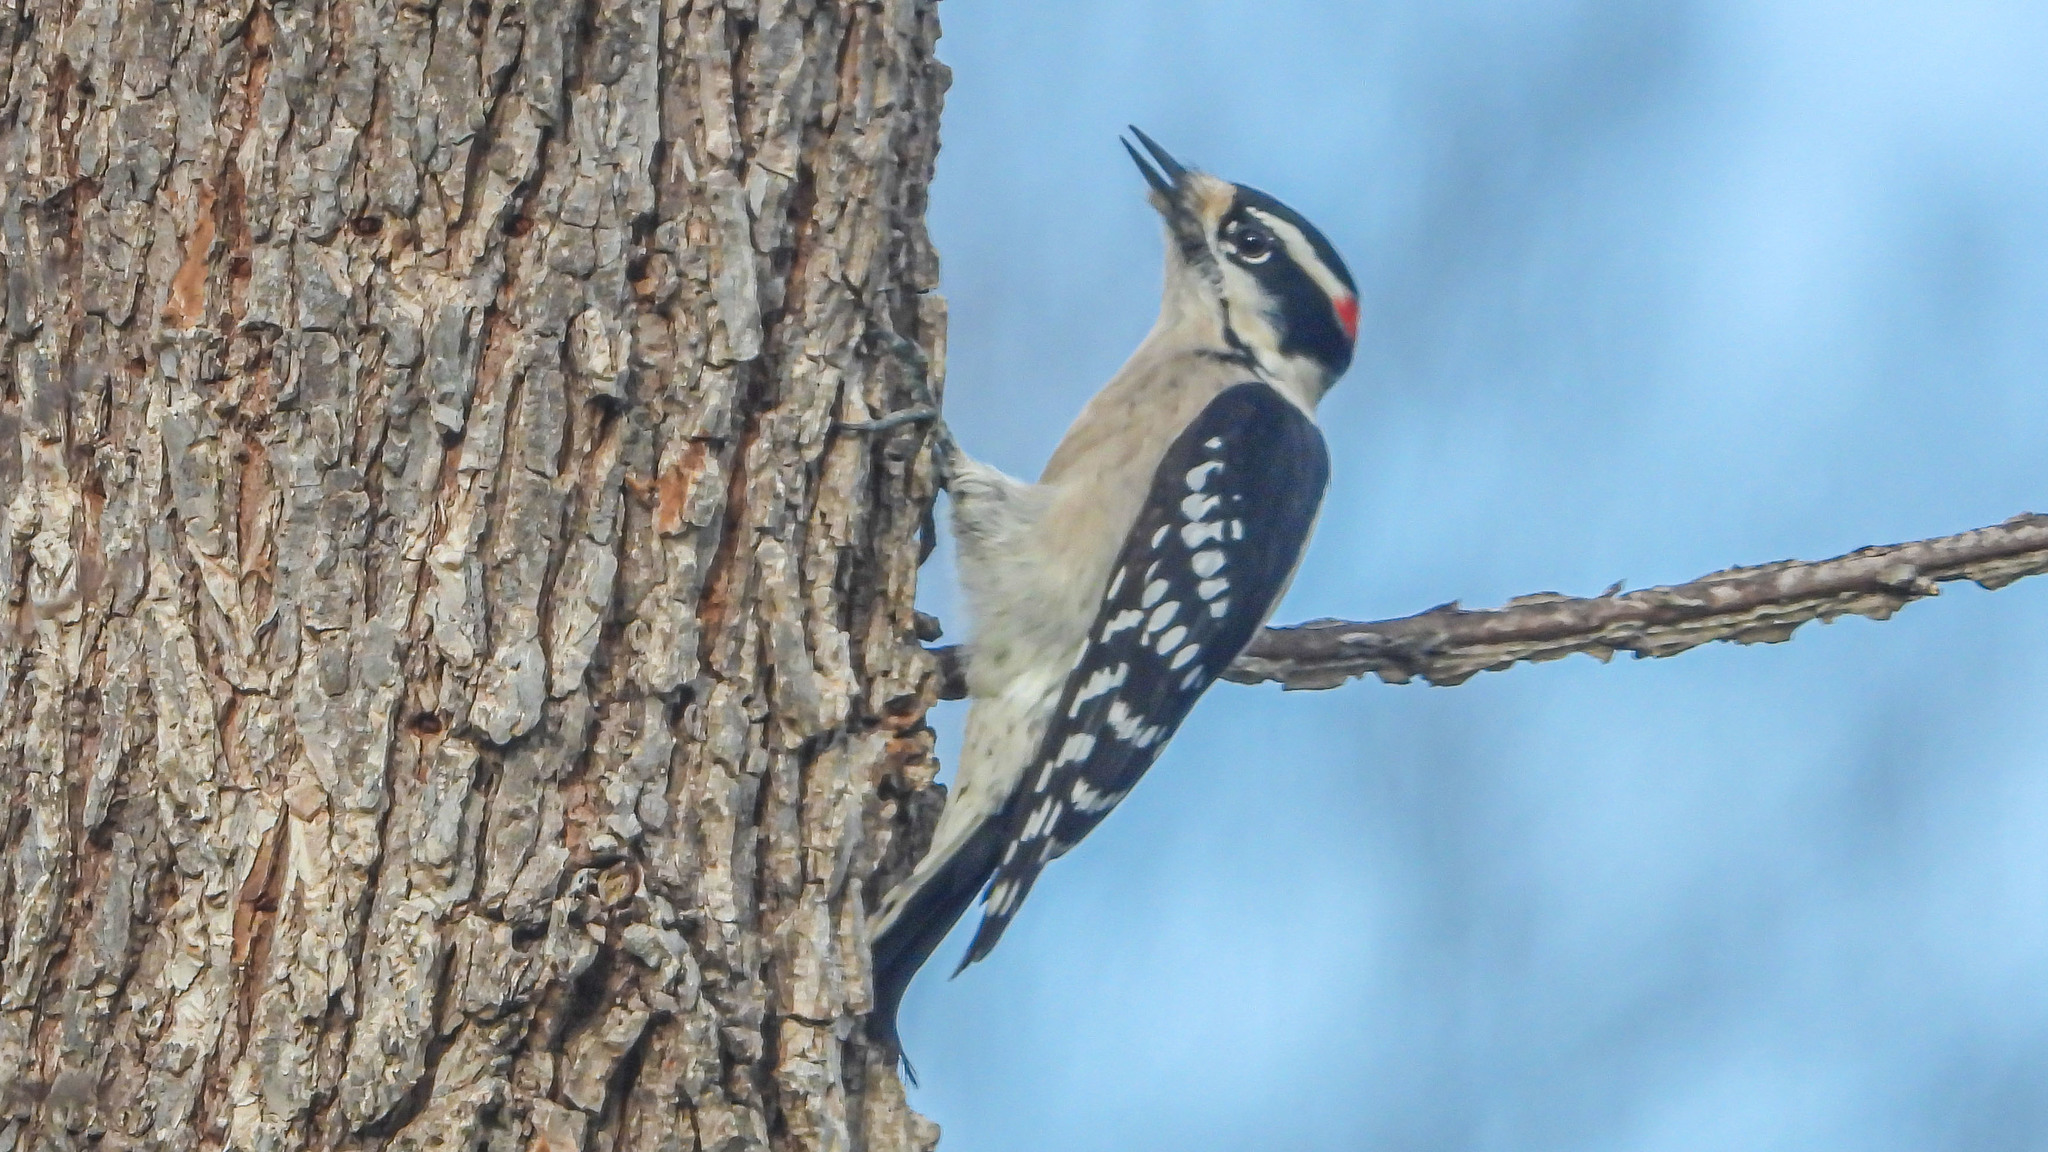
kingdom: Animalia
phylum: Chordata
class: Aves
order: Piciformes
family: Picidae
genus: Dryobates
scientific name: Dryobates pubescens
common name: Downy woodpecker
